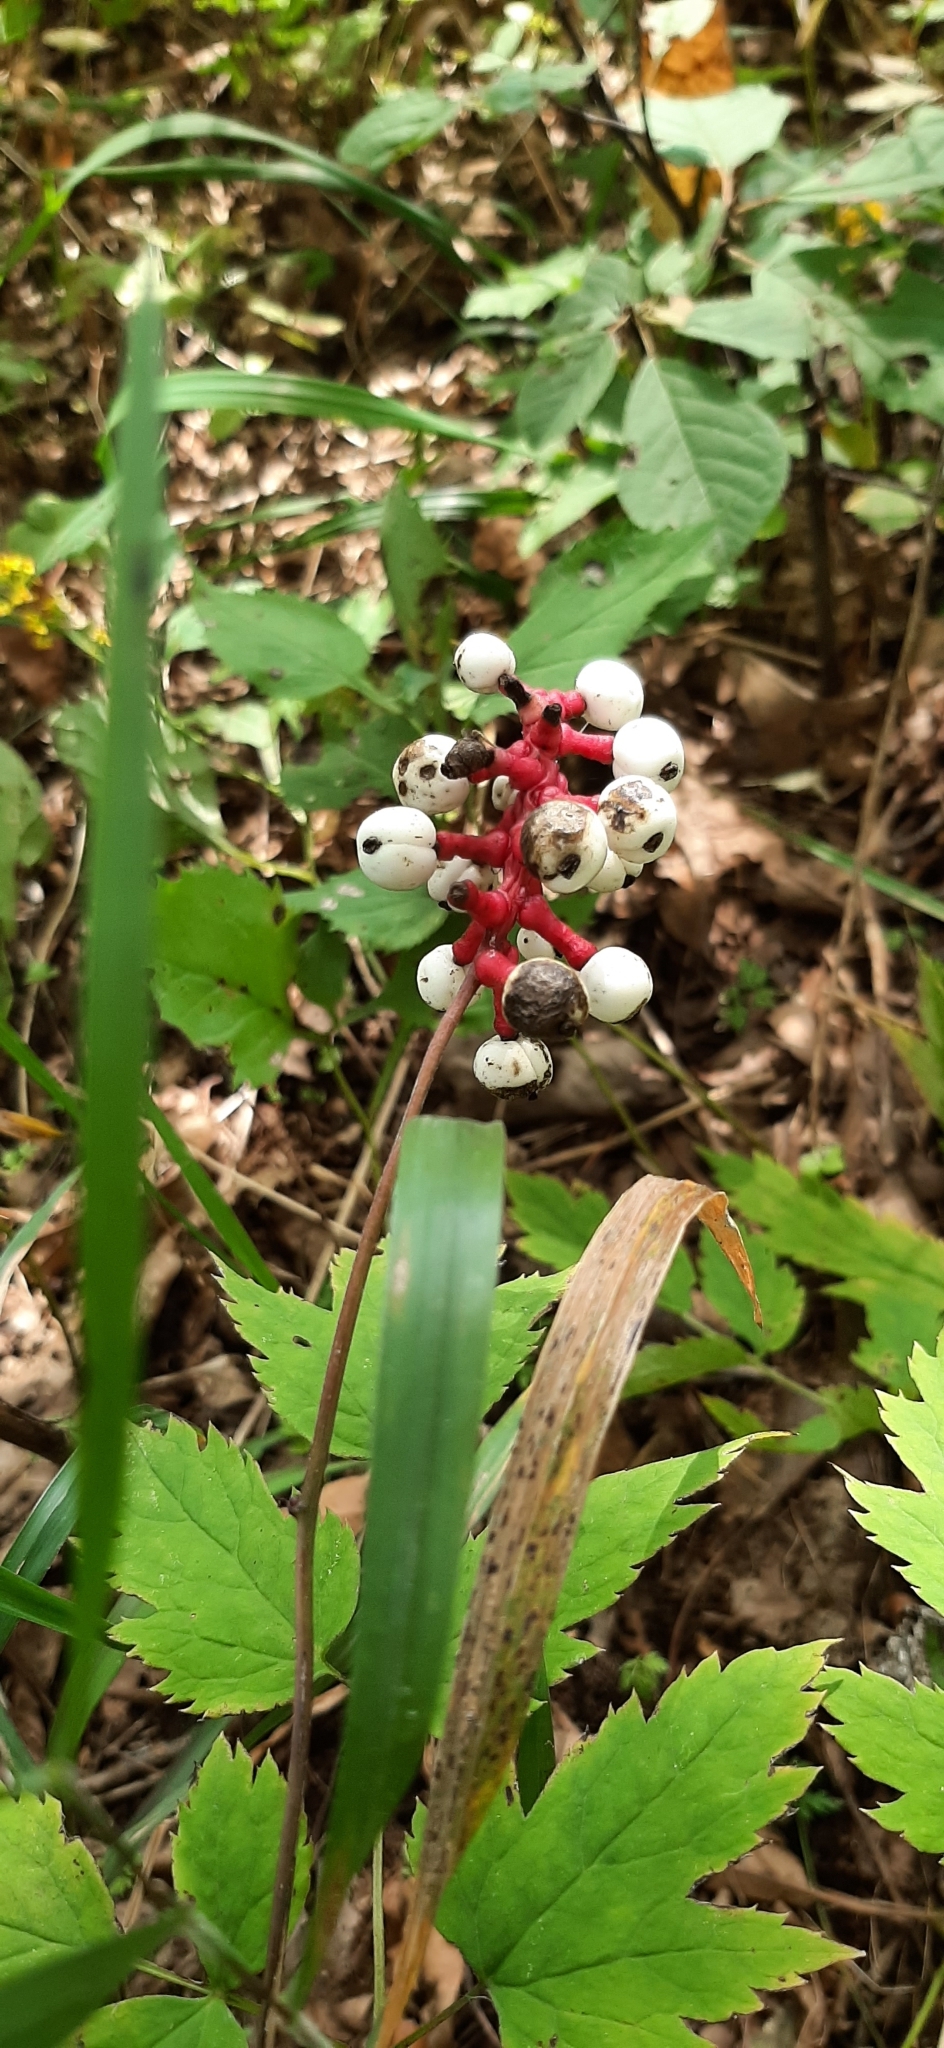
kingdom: Plantae
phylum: Tracheophyta
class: Magnoliopsida
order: Ranunculales
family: Ranunculaceae
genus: Actaea
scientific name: Actaea pachypoda
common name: Doll's-eyes
